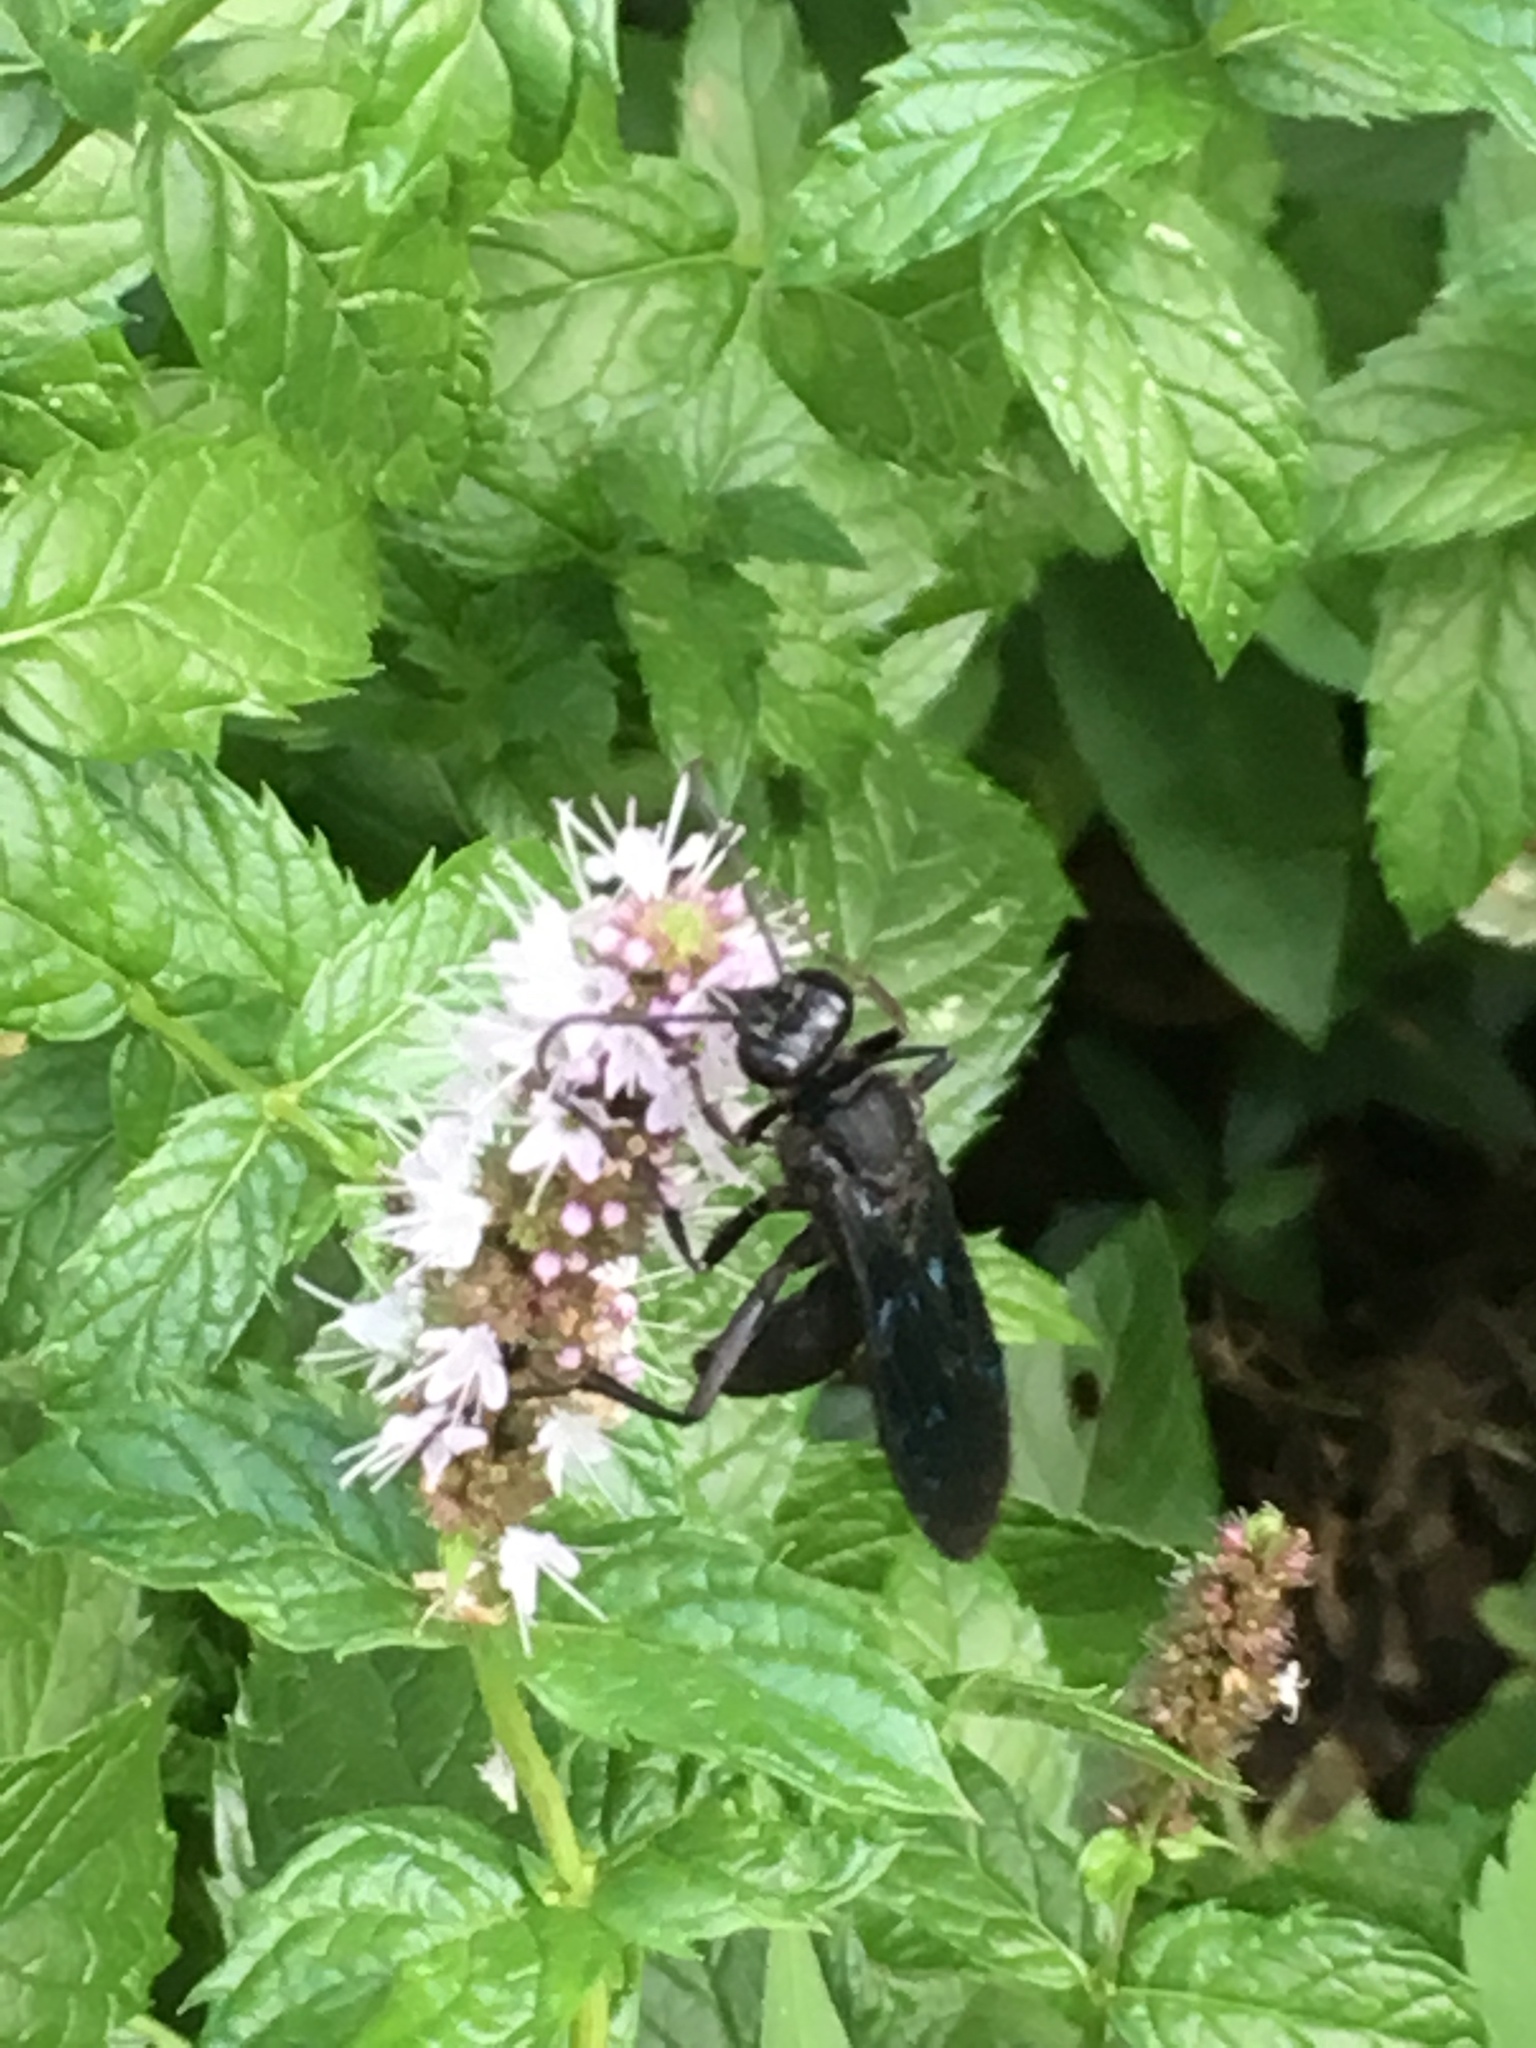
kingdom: Animalia
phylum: Arthropoda
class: Insecta
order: Hymenoptera
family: Sphecidae
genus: Sphex
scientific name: Sphex pensylvanicus
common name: Great black digger wasp
